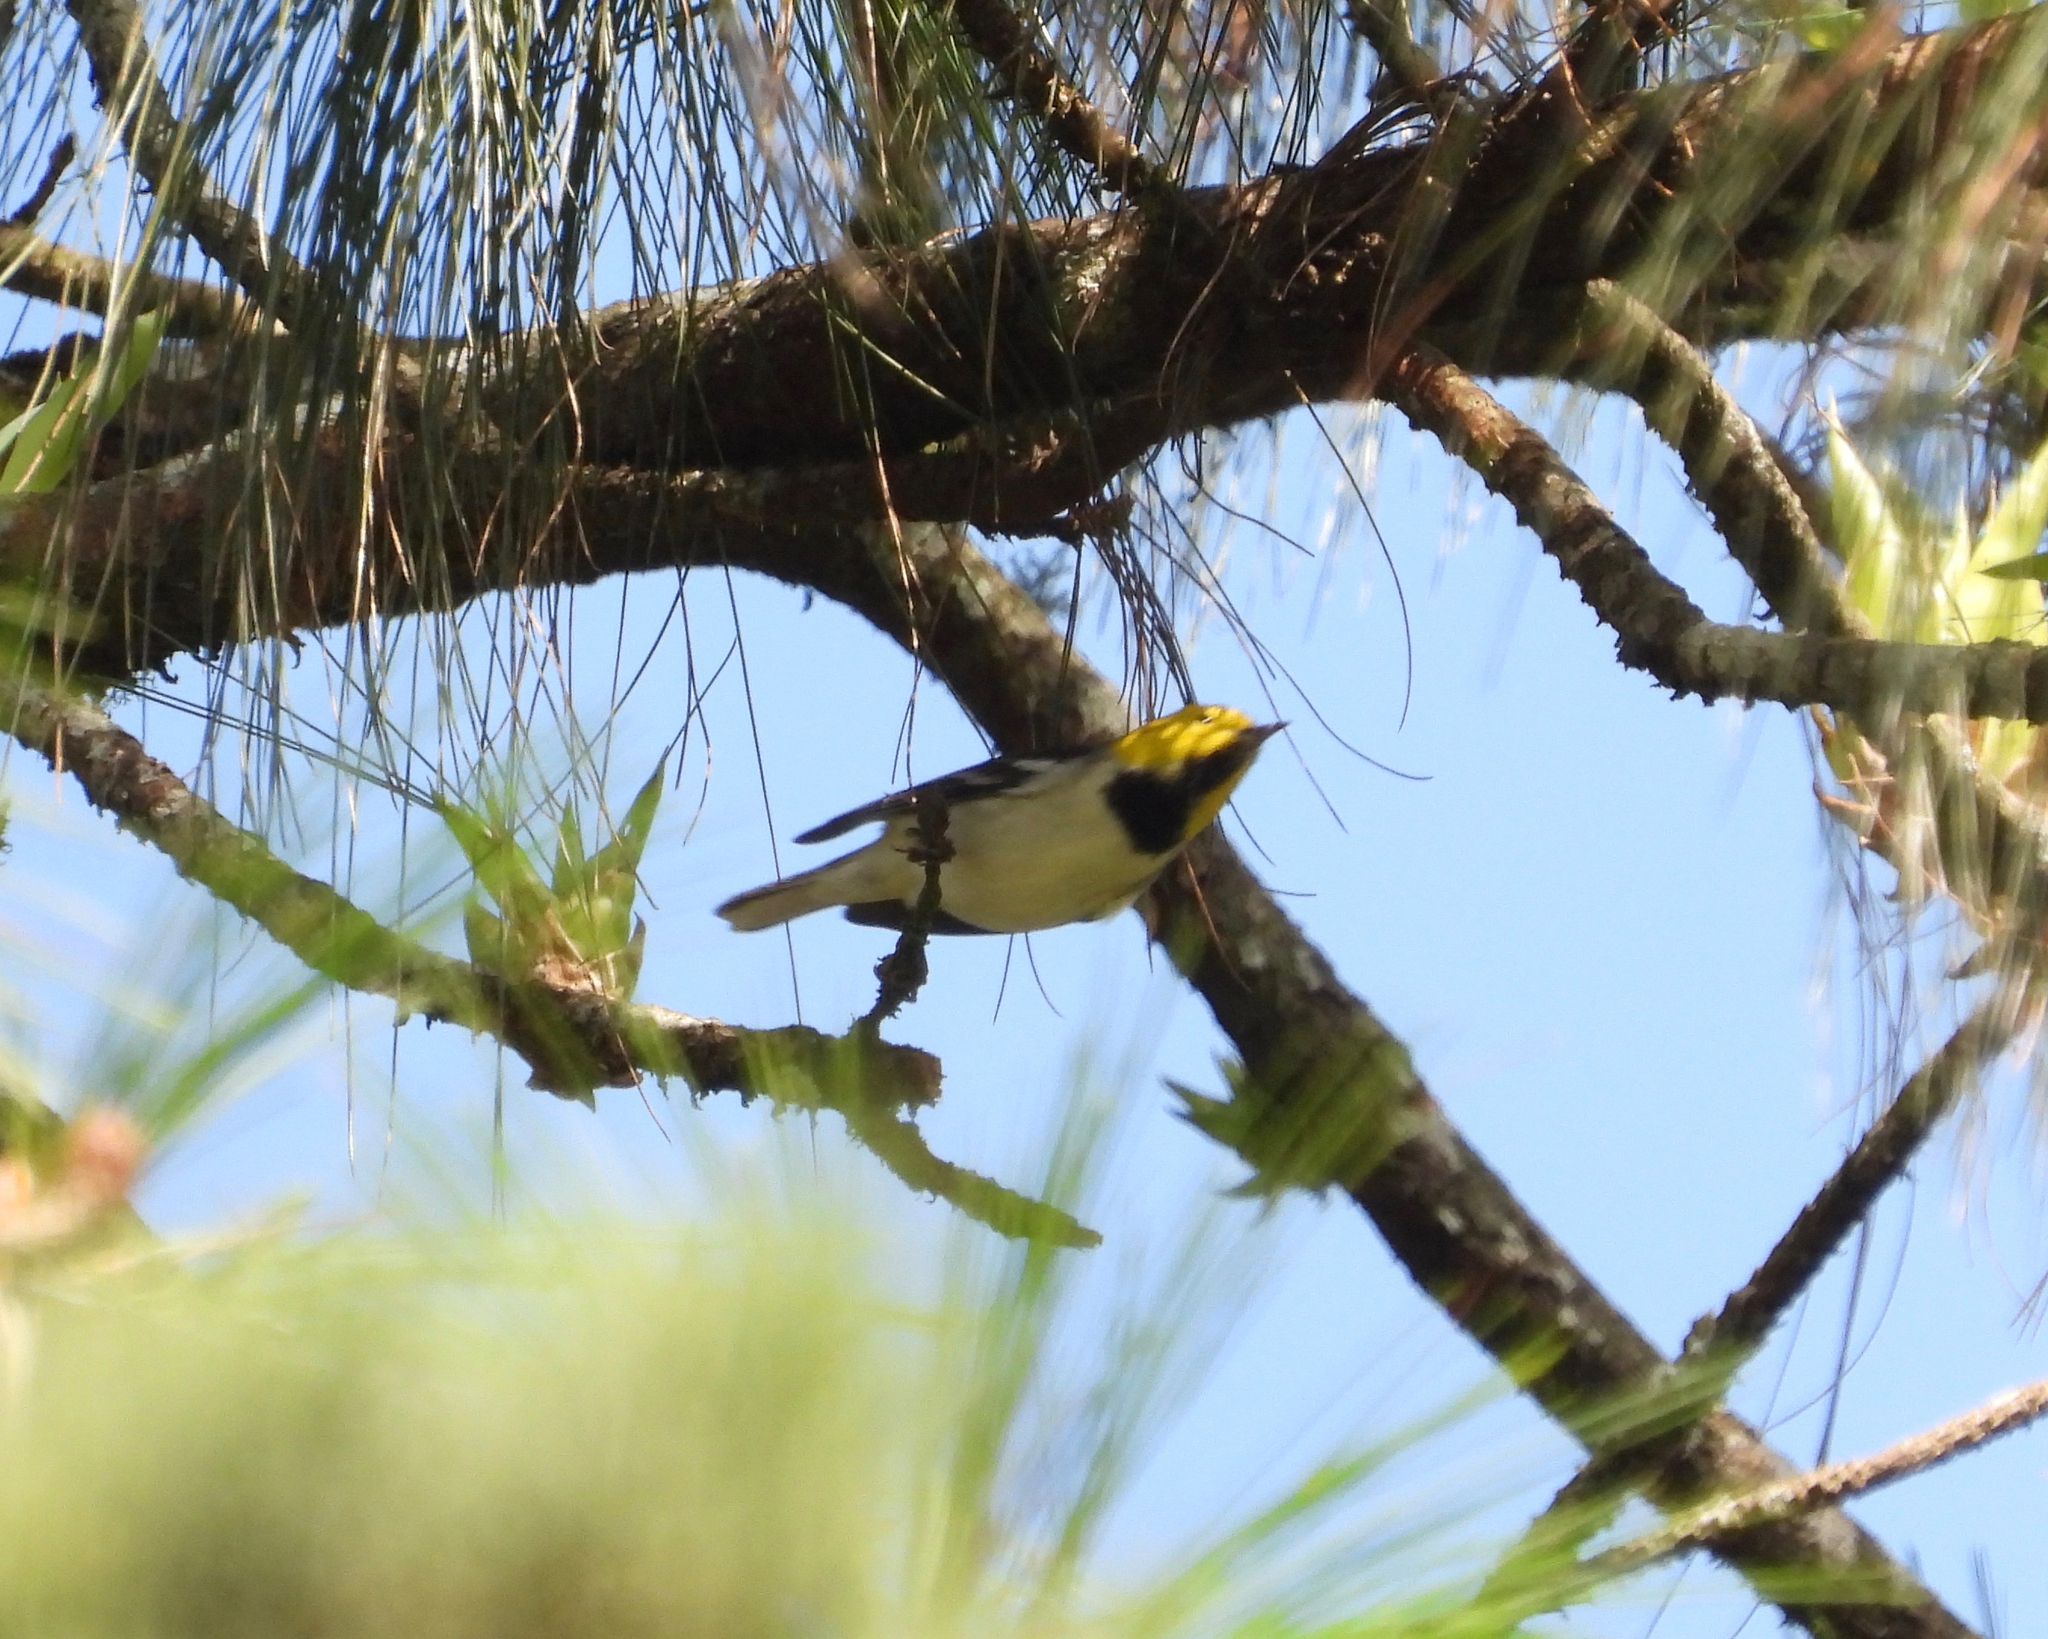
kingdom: Animalia
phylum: Chordata
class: Aves
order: Passeriformes
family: Parulidae
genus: Setophaga
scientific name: Setophaga occidentalis
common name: Hermit warbler
